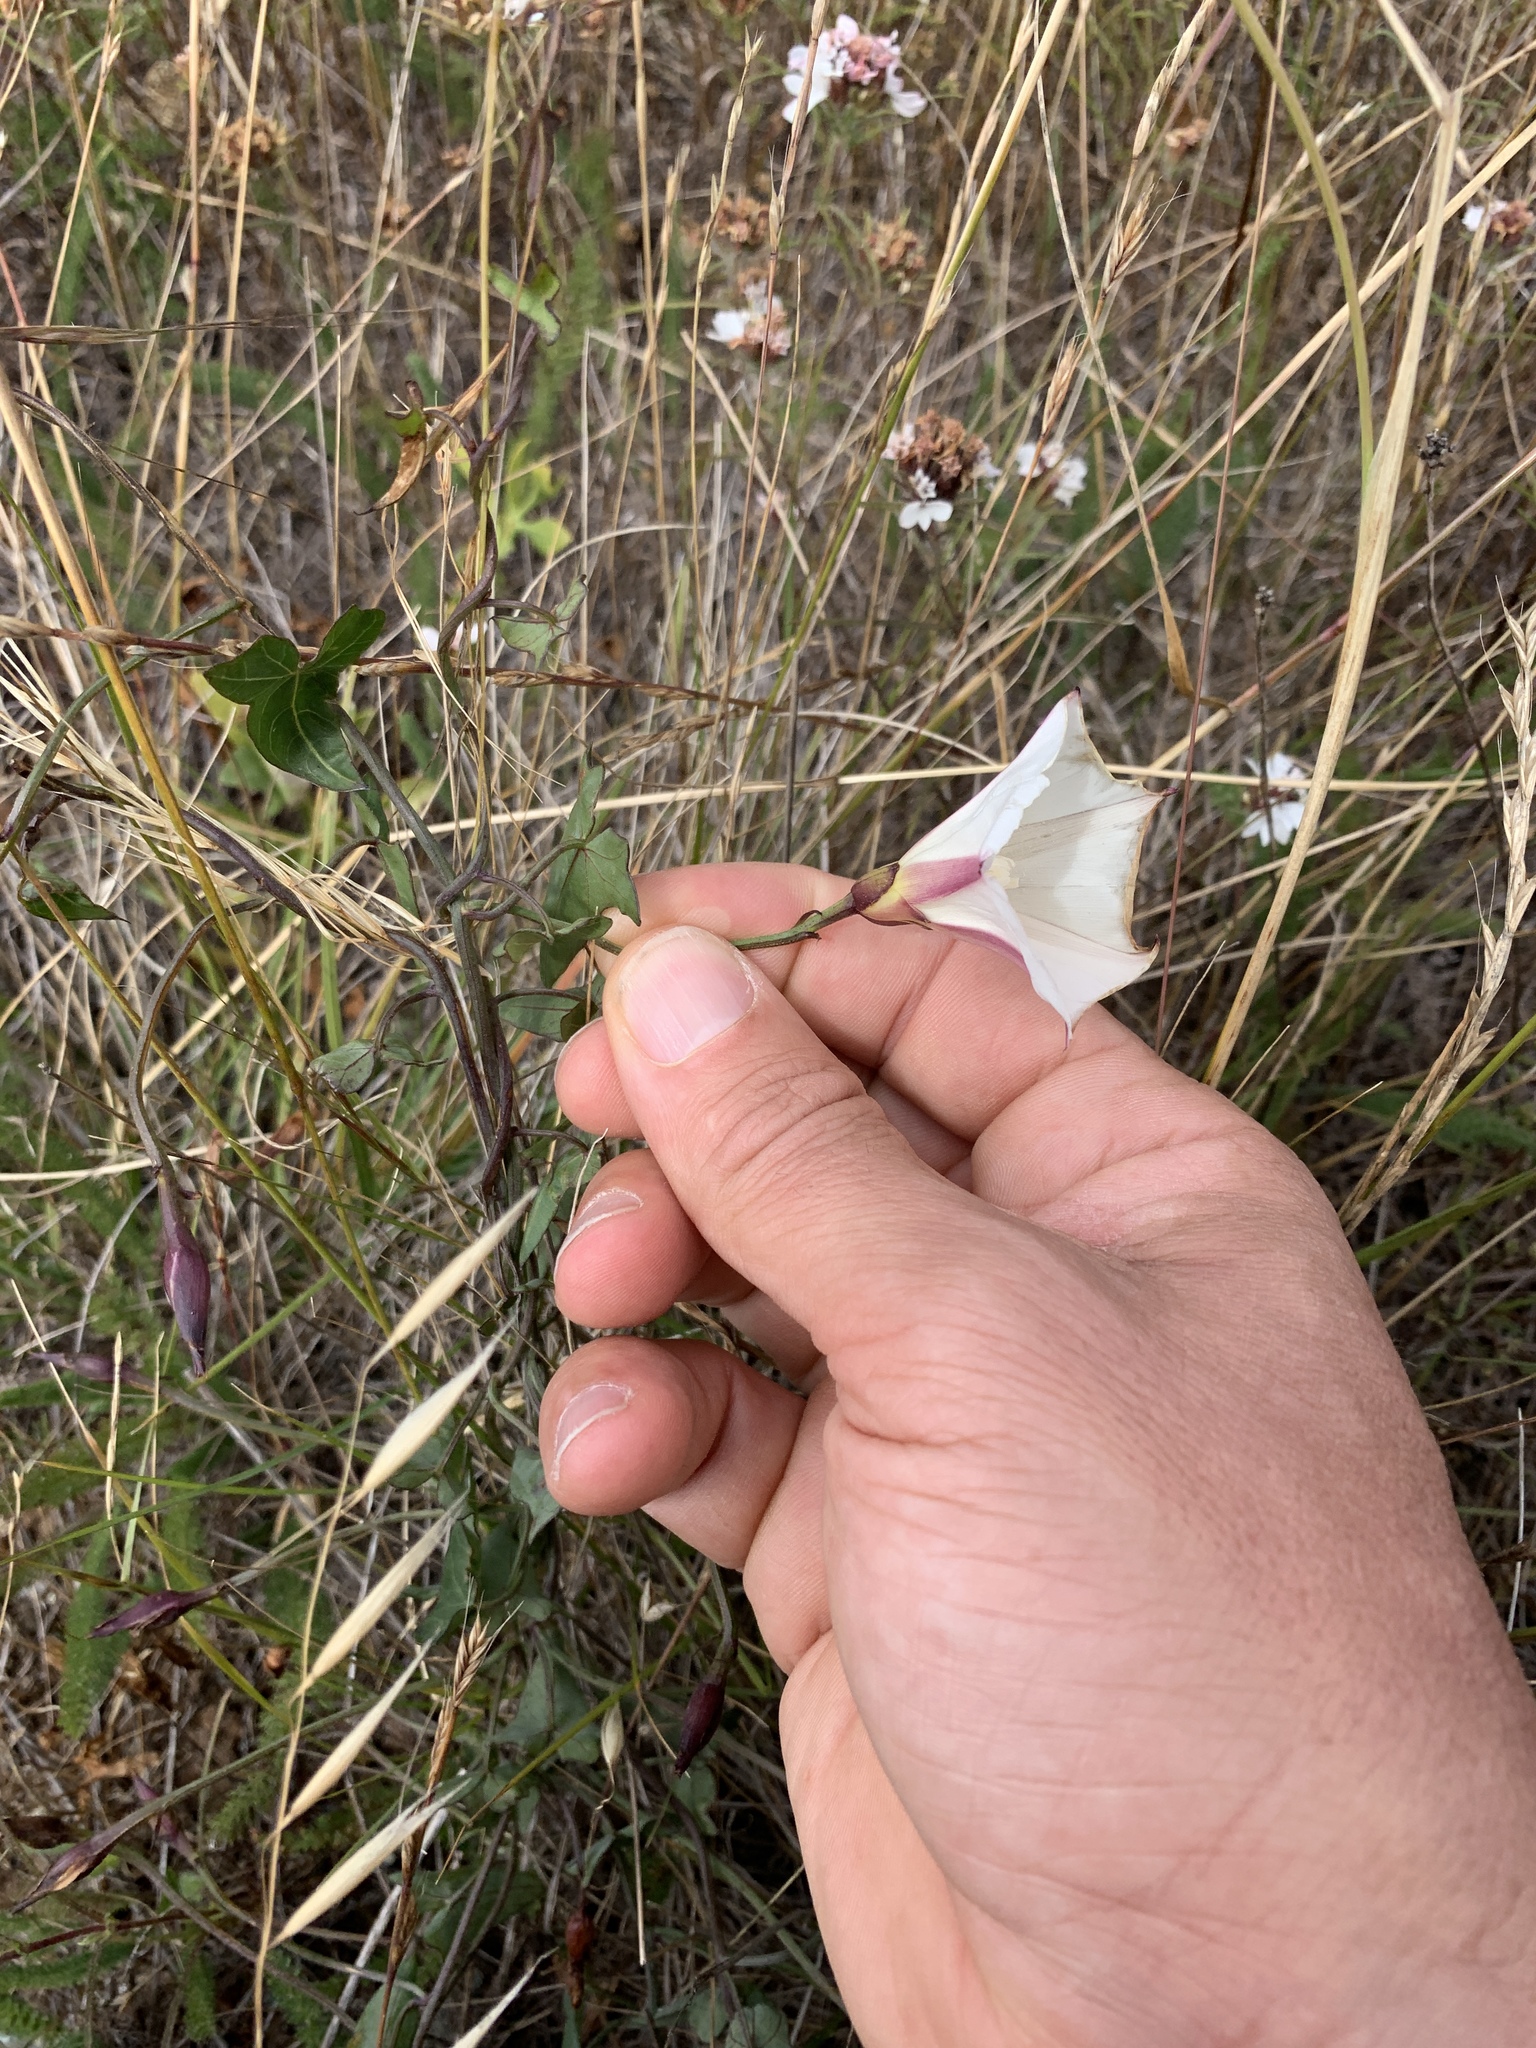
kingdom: Plantae
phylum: Tracheophyta
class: Magnoliopsida
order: Solanales
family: Convolvulaceae
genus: Calystegia
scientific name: Calystegia purpurata
